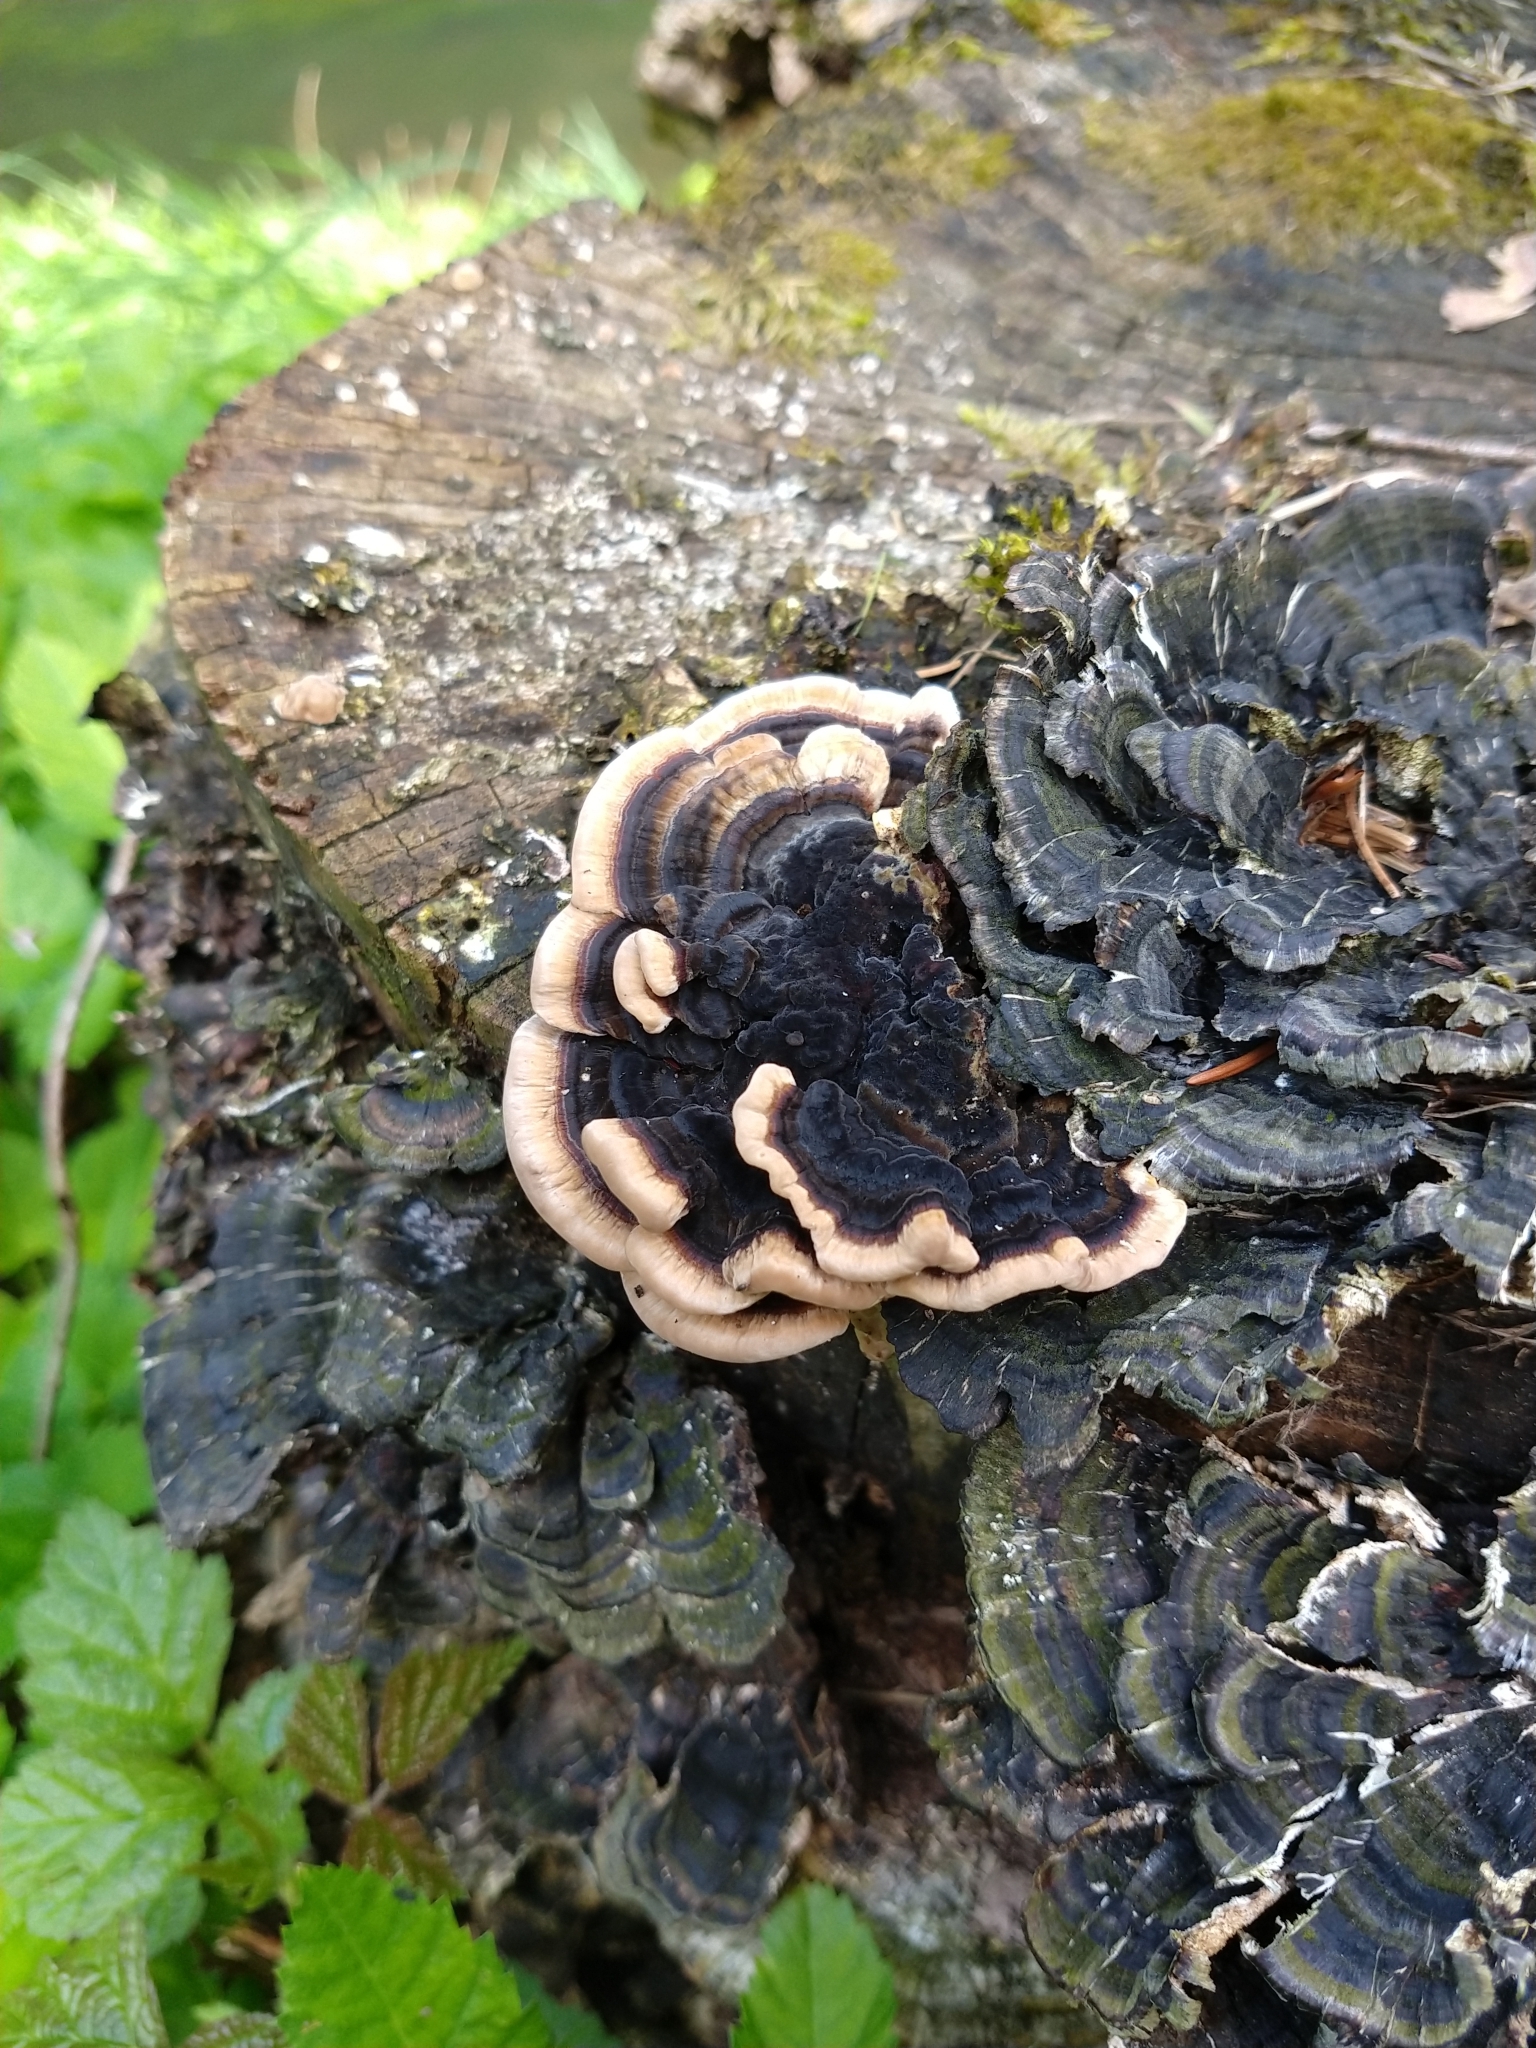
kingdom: Fungi
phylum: Basidiomycota
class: Agaricomycetes
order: Polyporales
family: Polyporaceae
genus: Trametes
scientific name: Trametes versicolor
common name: Turkeytail
